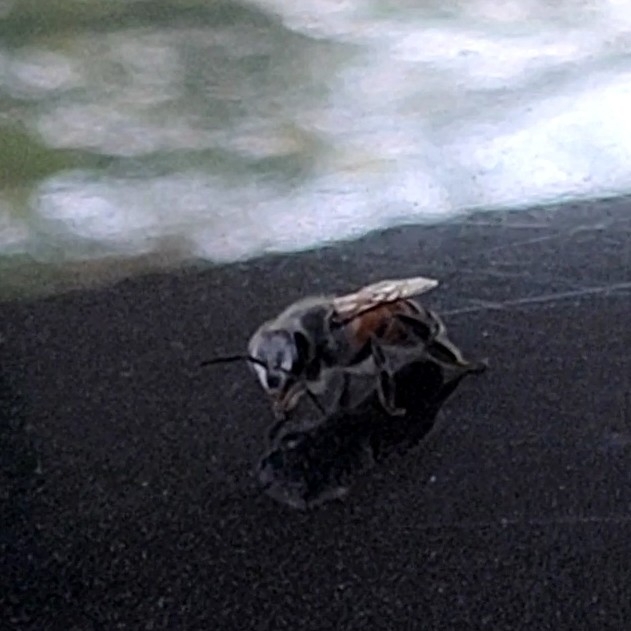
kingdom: Animalia
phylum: Arthropoda
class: Insecta
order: Hymenoptera
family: Apidae
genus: Apis
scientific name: Apis florea
